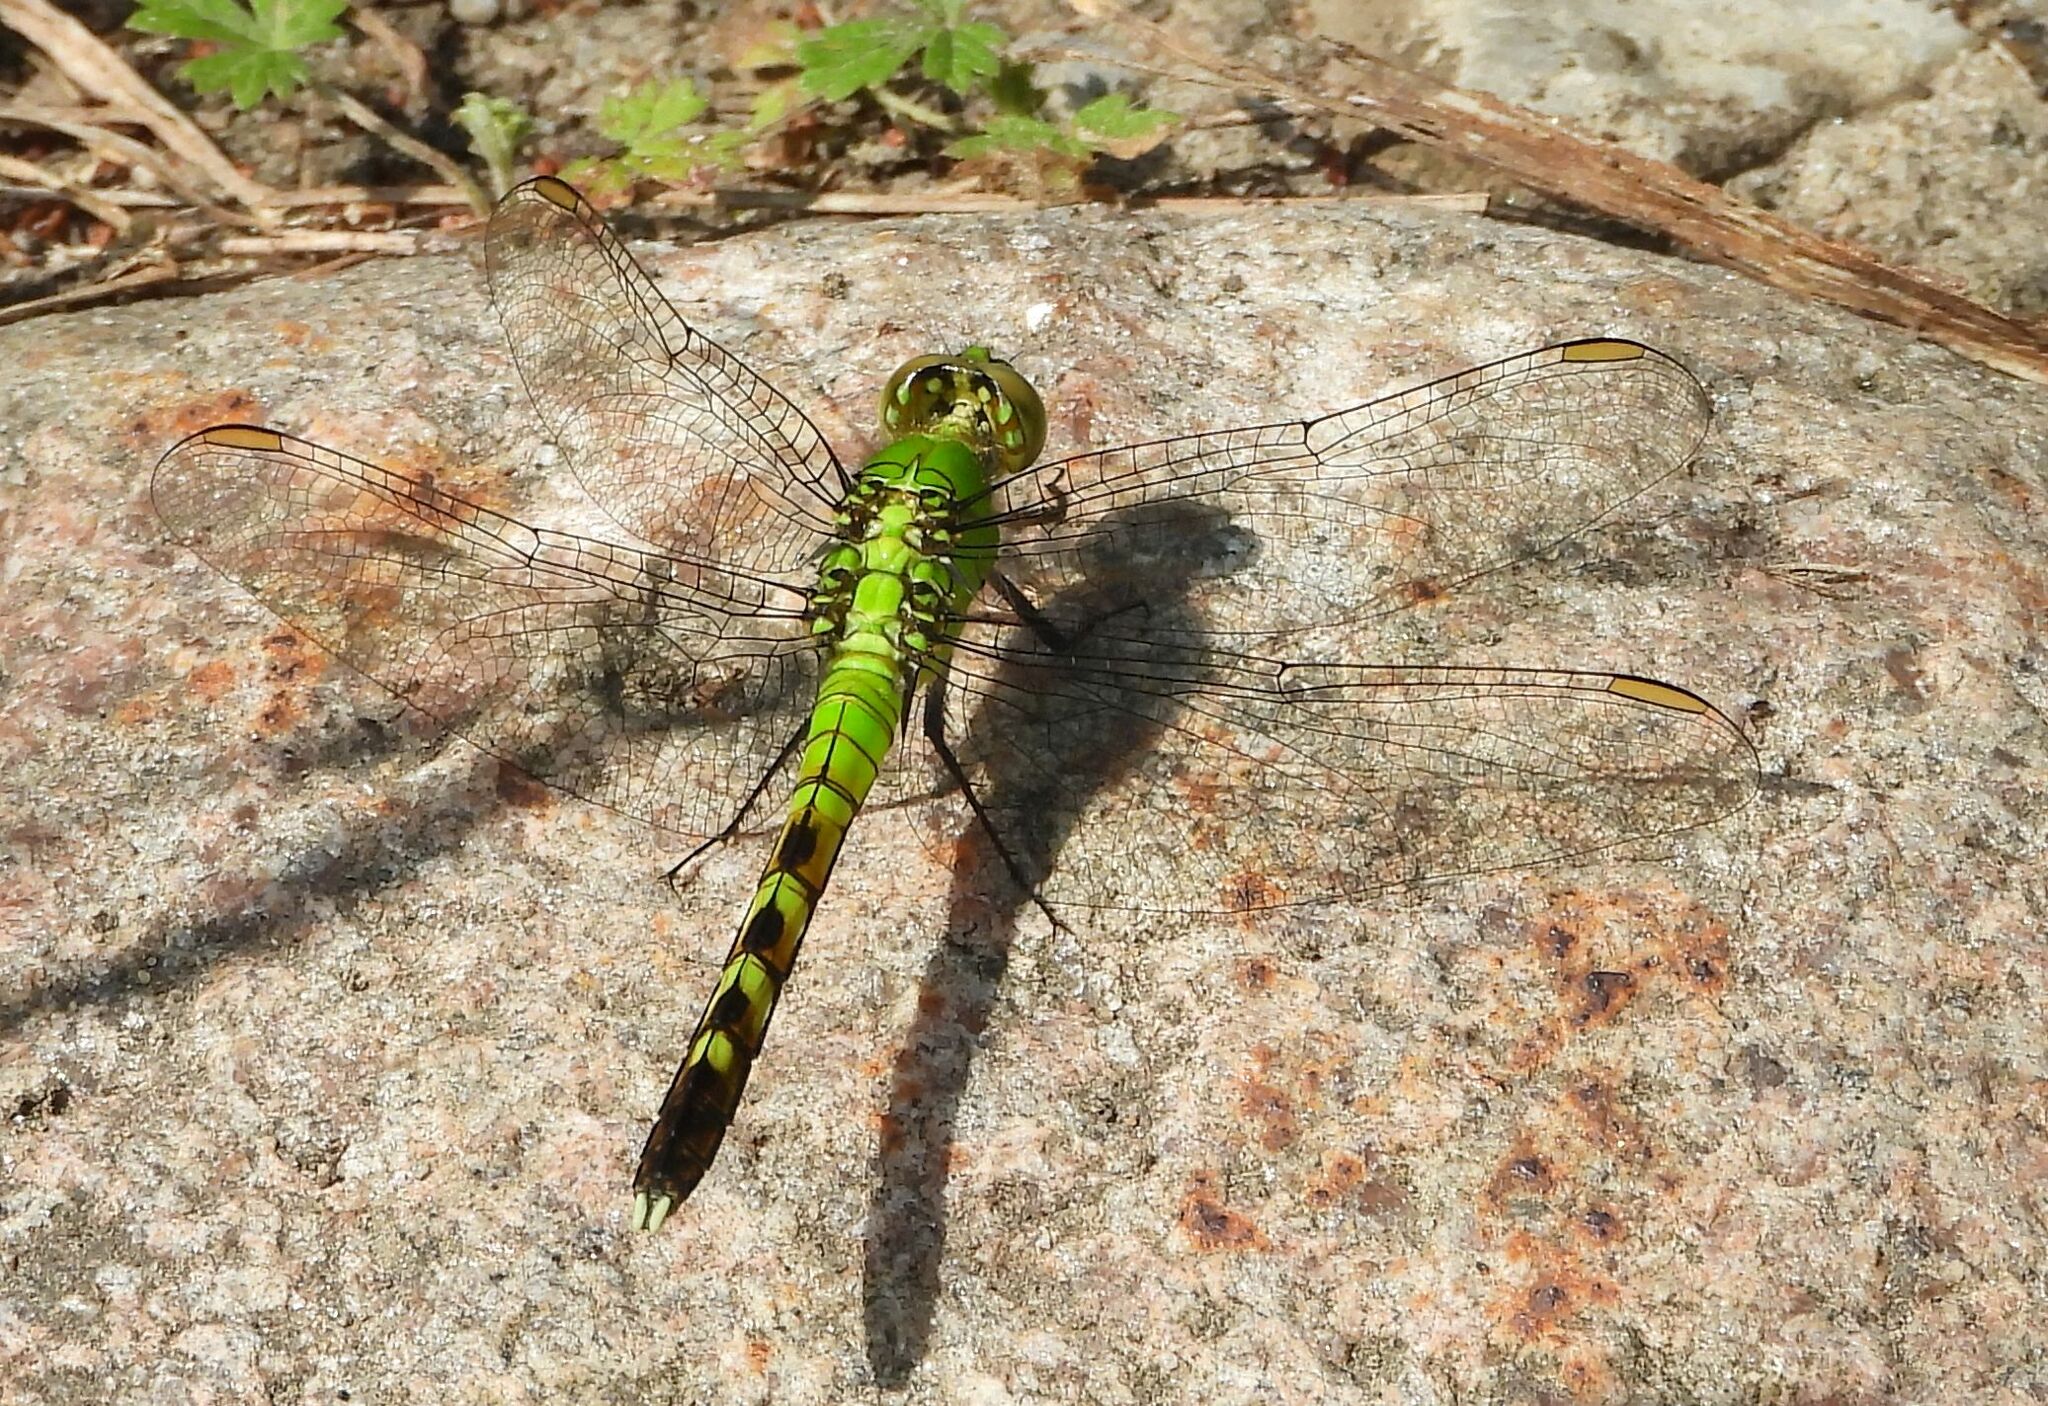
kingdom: Animalia
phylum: Arthropoda
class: Insecta
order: Odonata
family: Libellulidae
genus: Erythemis
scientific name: Erythemis simplicicollis
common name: Eastern pondhawk
